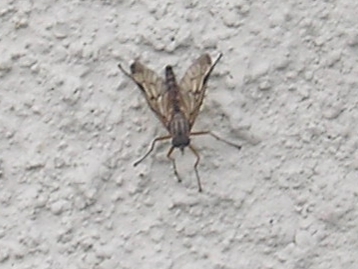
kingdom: Animalia
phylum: Arthropoda
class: Insecta
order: Diptera
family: Rhagionidae
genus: Rhagio
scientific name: Rhagio scolopacea
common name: Downlooker snipefly
